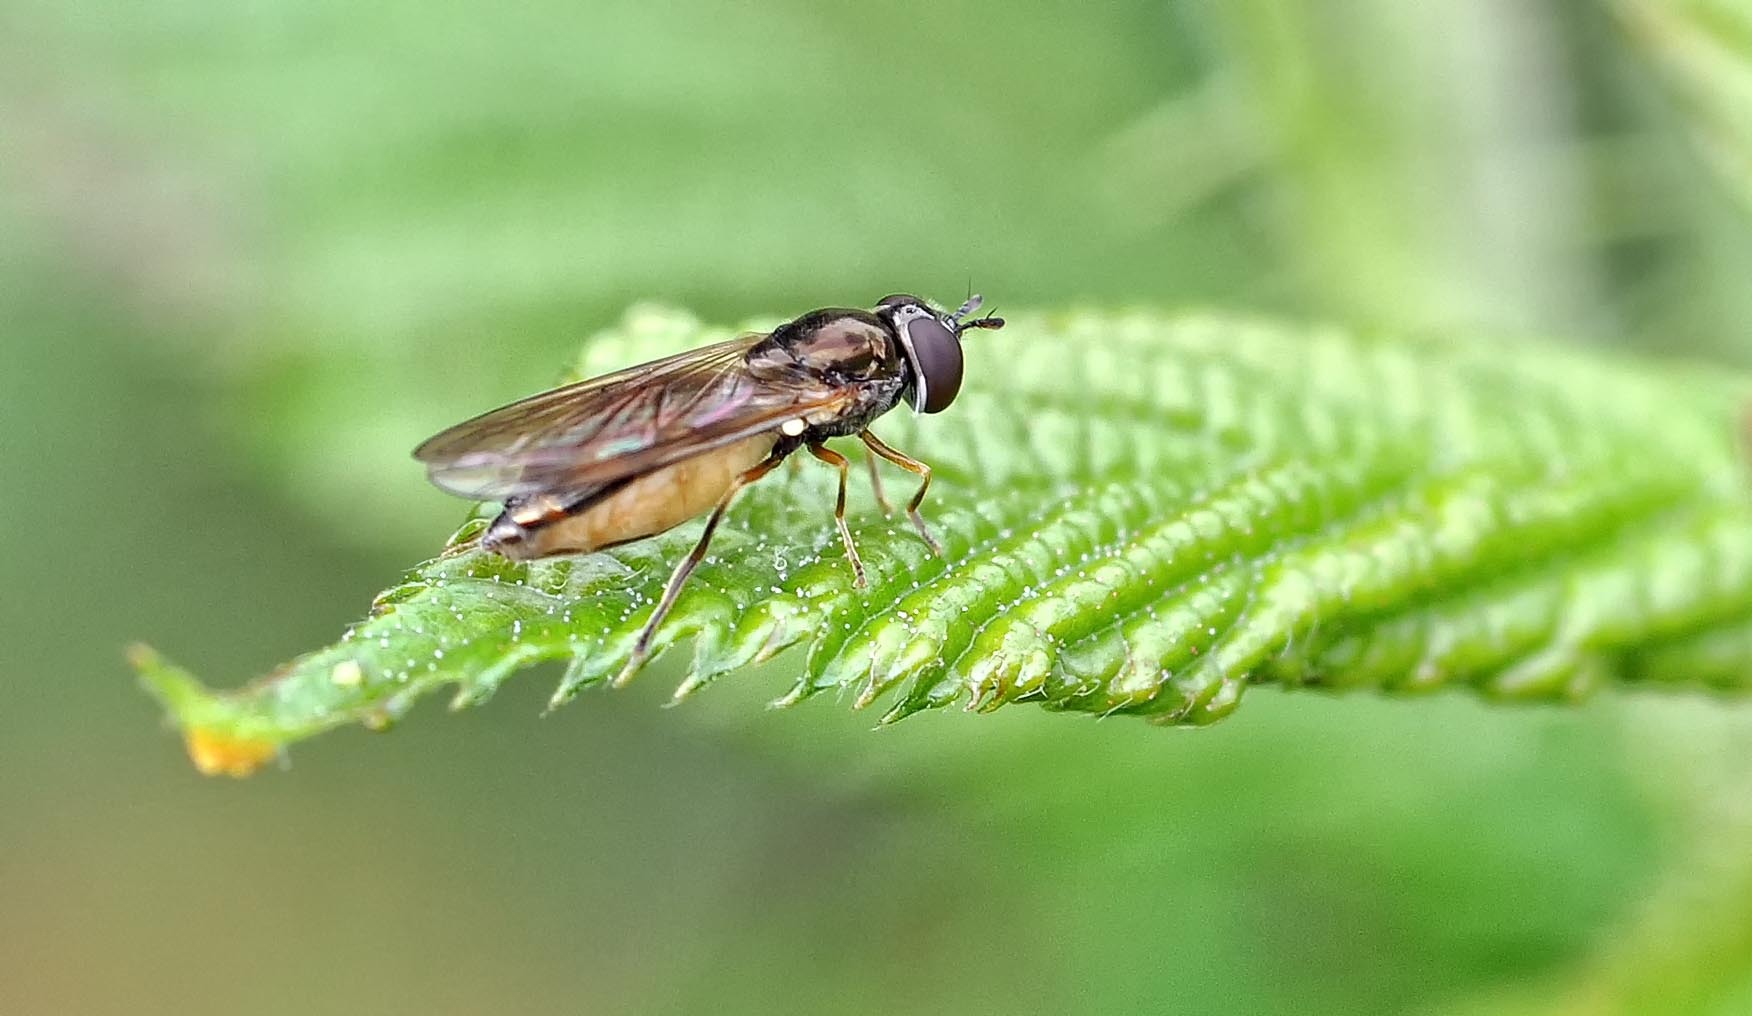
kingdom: Animalia
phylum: Arthropoda
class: Insecta
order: Diptera
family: Syrphidae
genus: Melanostoma
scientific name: Melanostoma
